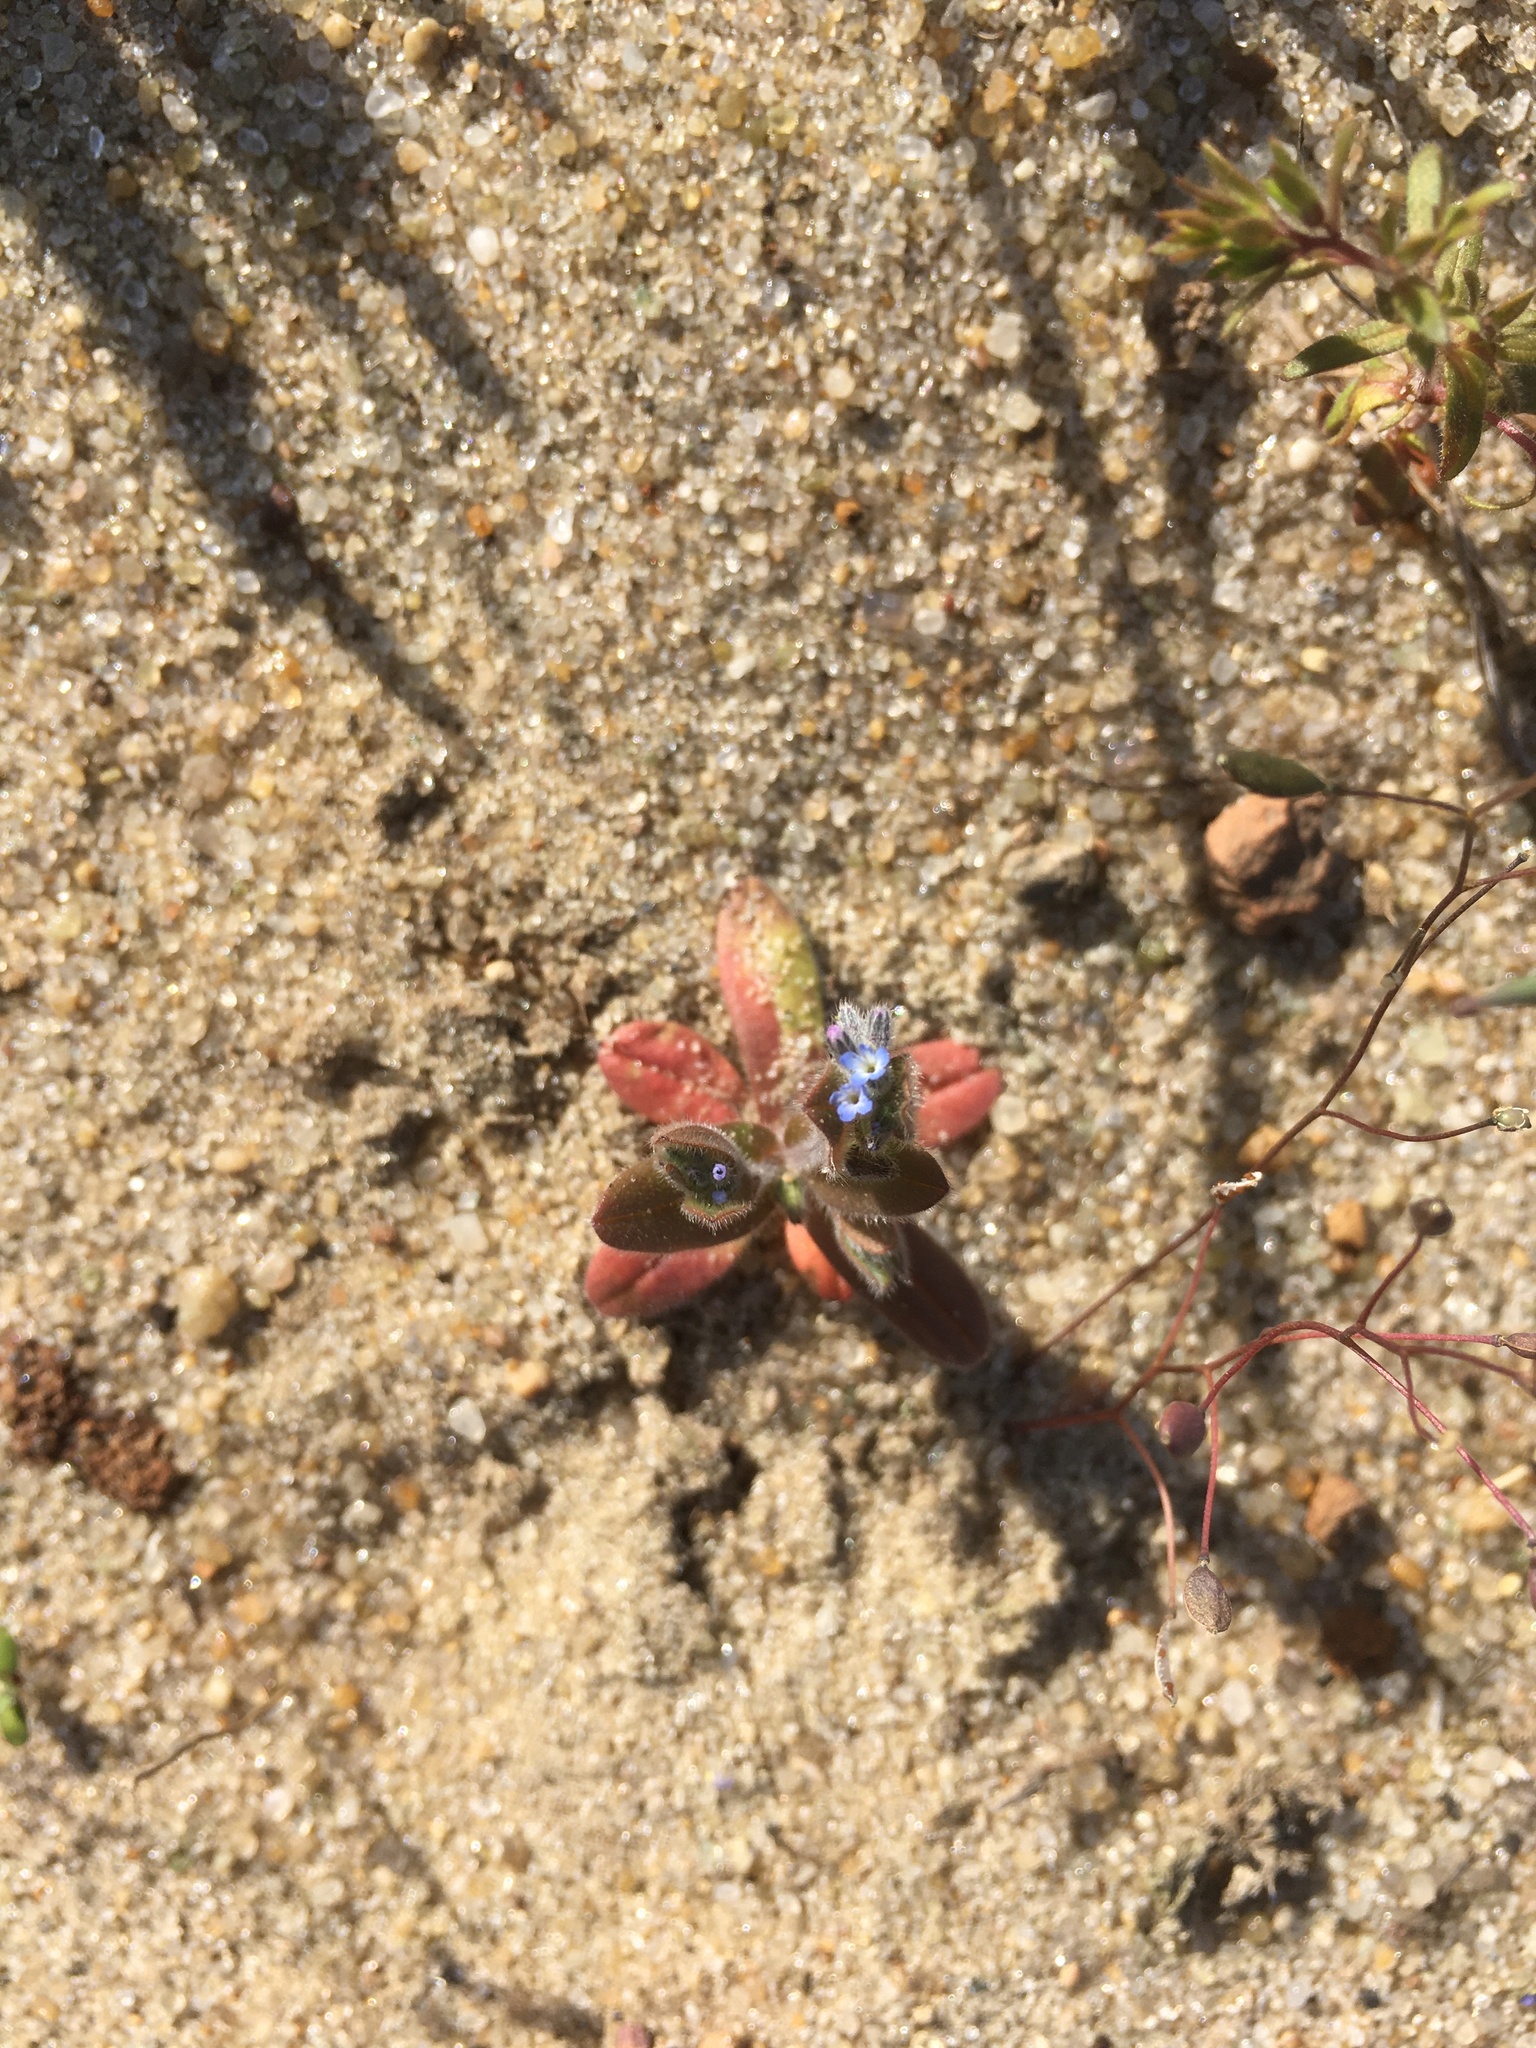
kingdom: Plantae
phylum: Tracheophyta
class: Magnoliopsida
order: Boraginales
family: Boraginaceae
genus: Myosotis
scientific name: Myosotis stricta
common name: Strict forget-me-not
